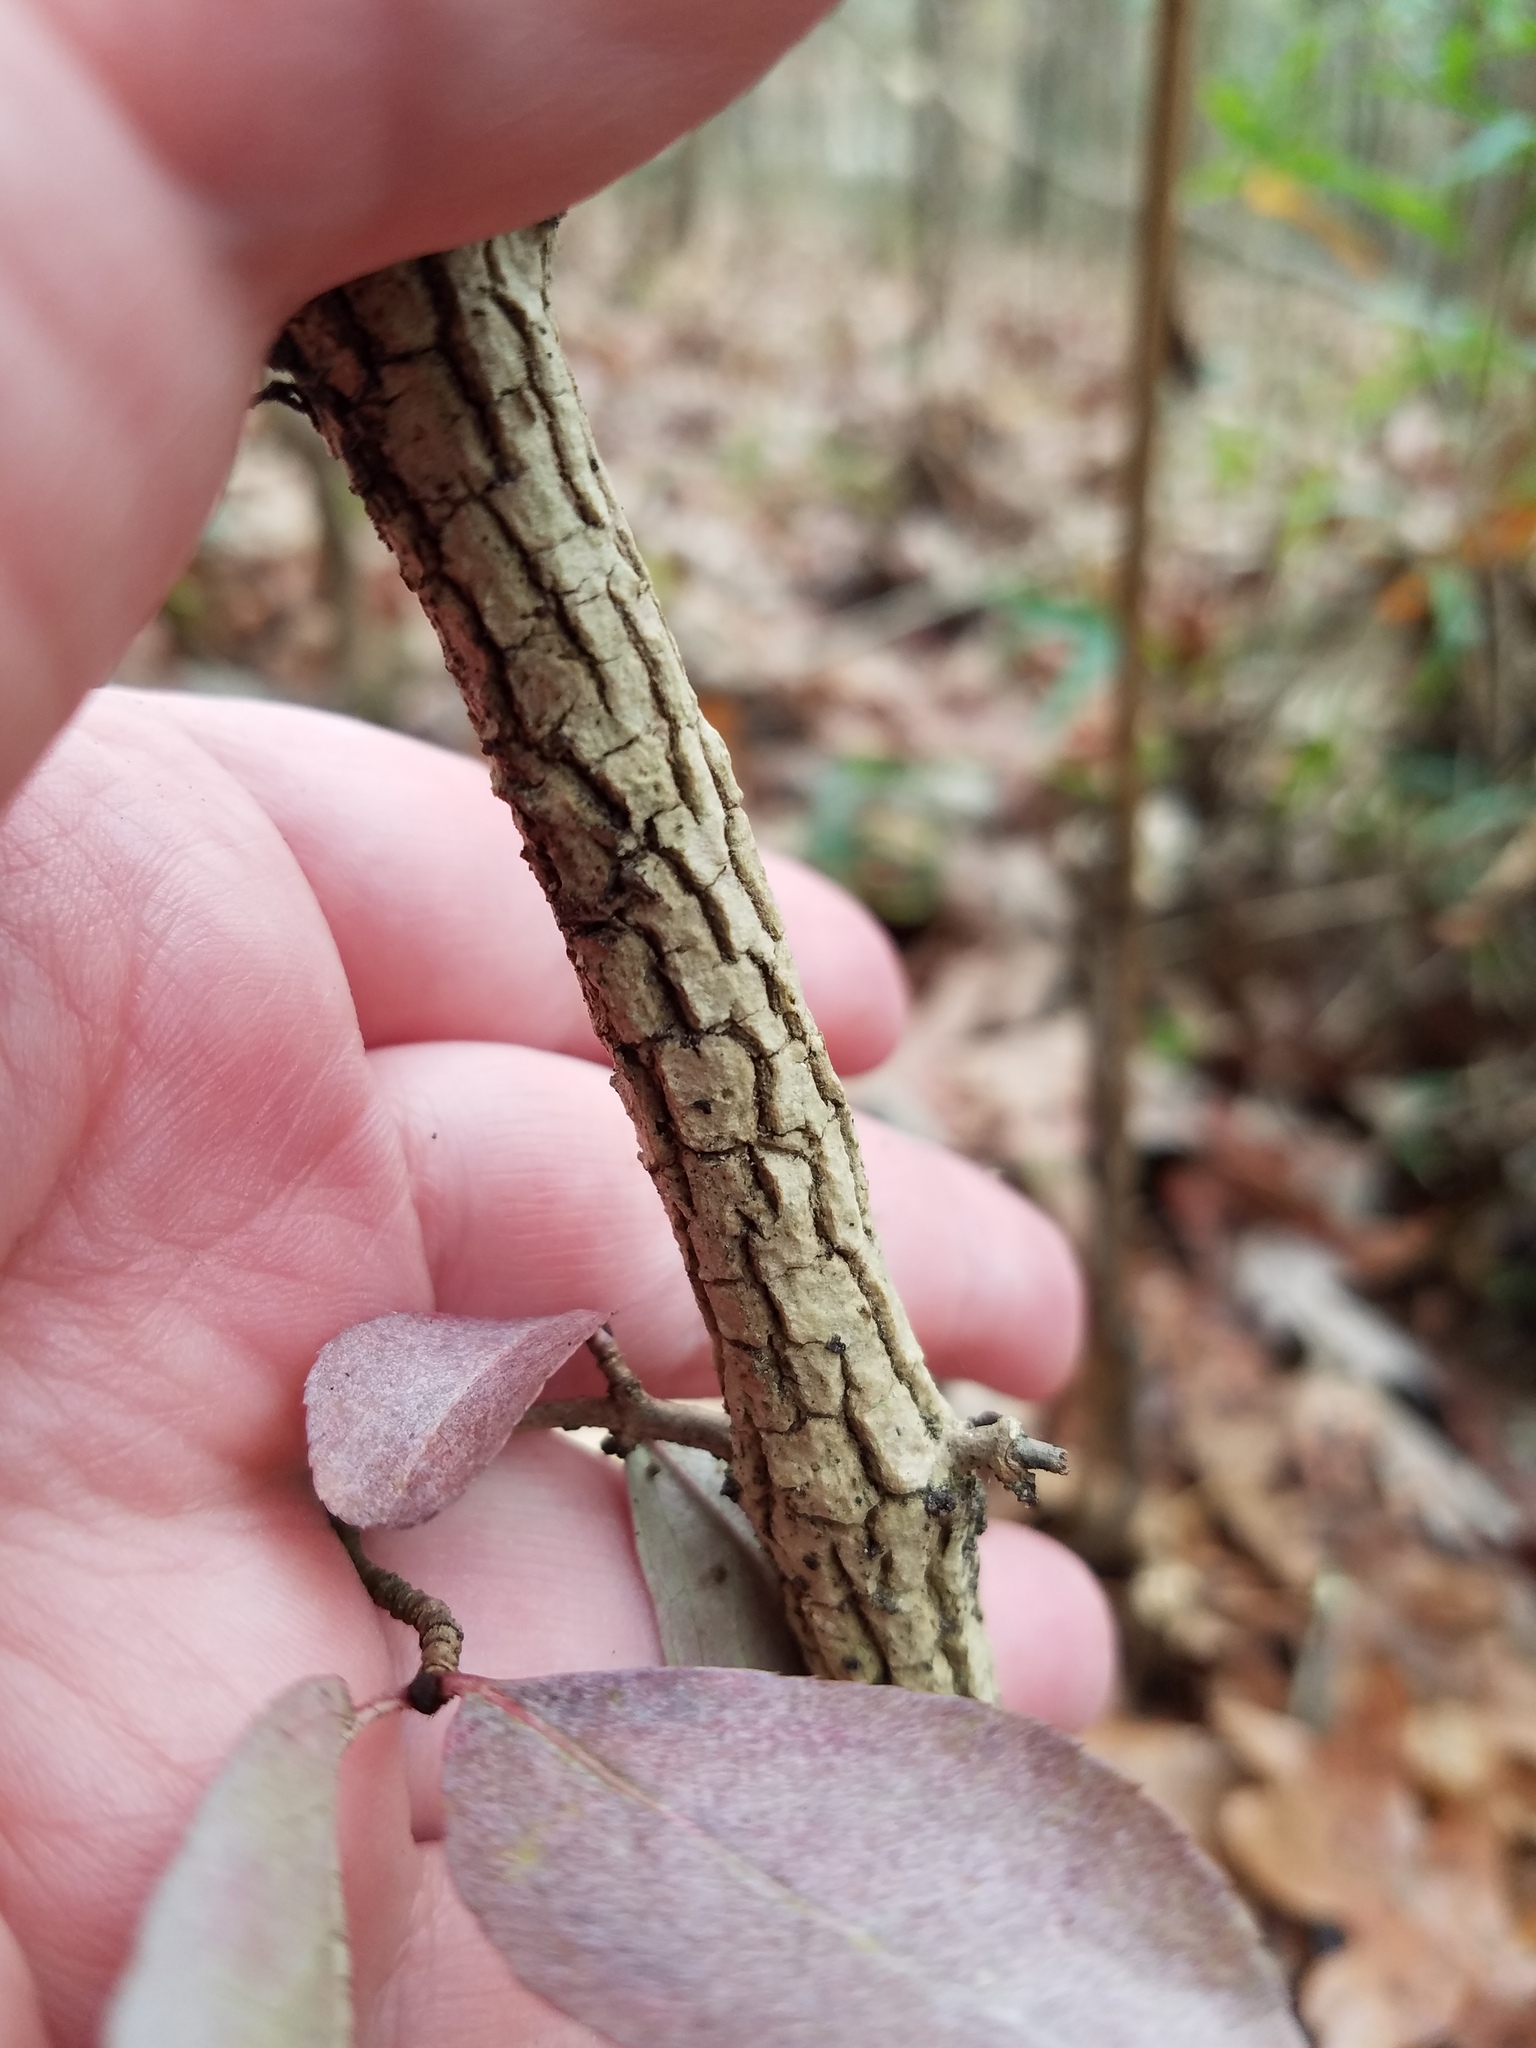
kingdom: Plantae
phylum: Tracheophyta
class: Magnoliopsida
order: Dipsacales
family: Viburnaceae
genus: Viburnum
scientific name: Viburnum rufidulum
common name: Blue haw
